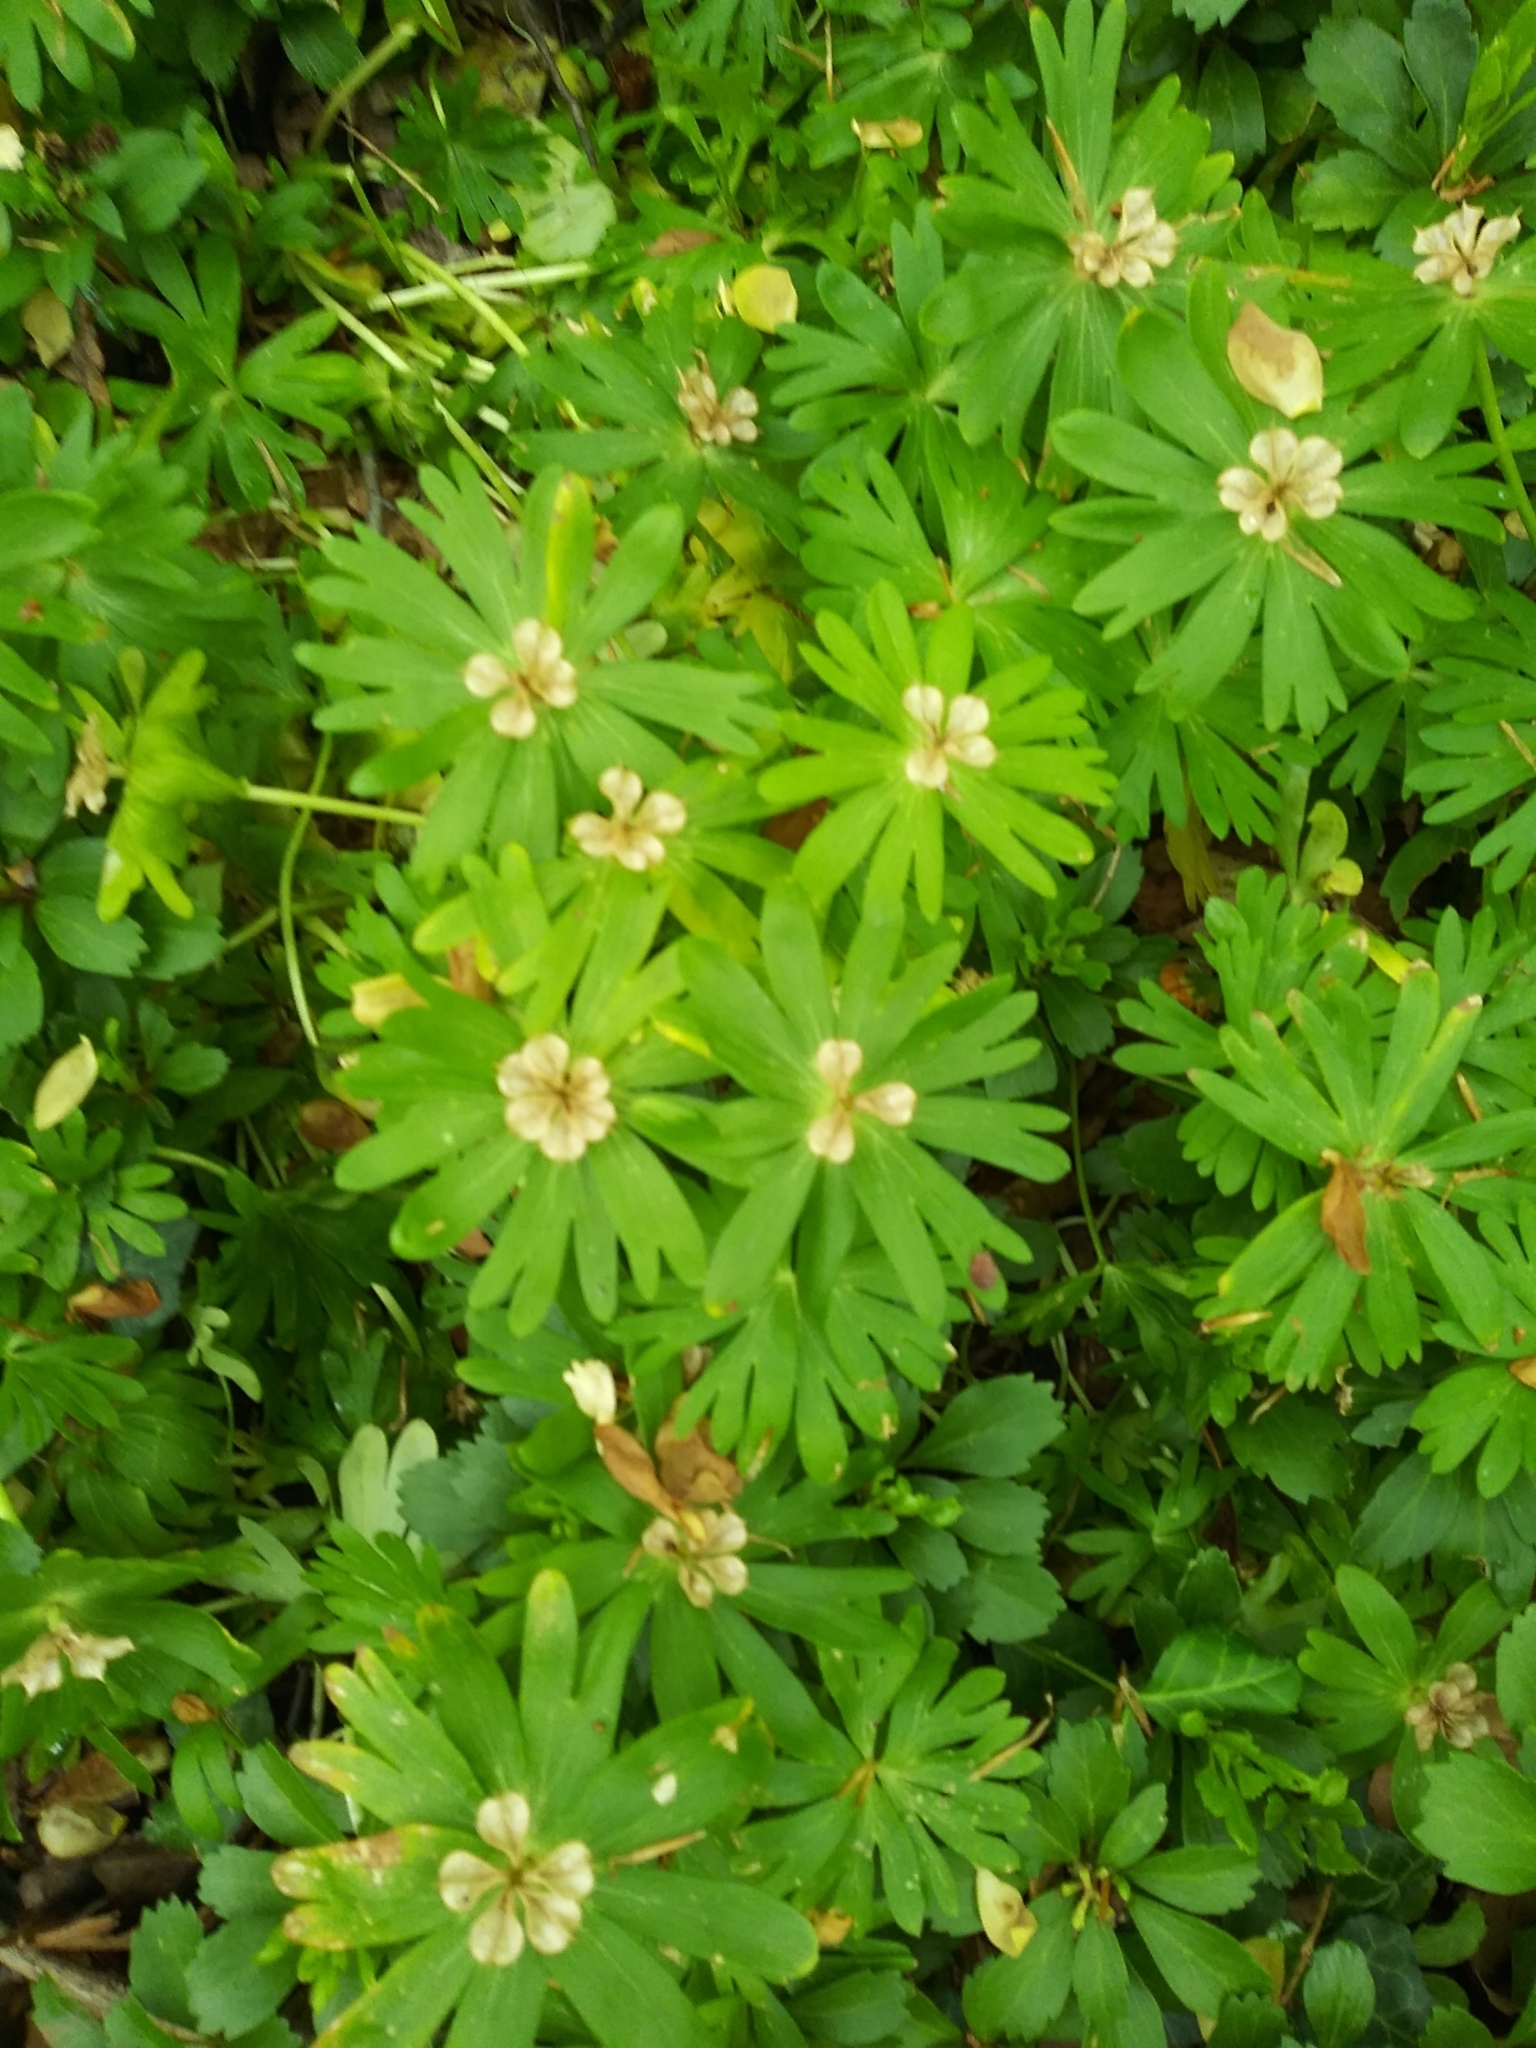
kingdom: Plantae
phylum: Tracheophyta
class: Magnoliopsida
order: Ranunculales
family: Ranunculaceae
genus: Eranthis
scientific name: Eranthis hyemalis
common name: Winter aconite
